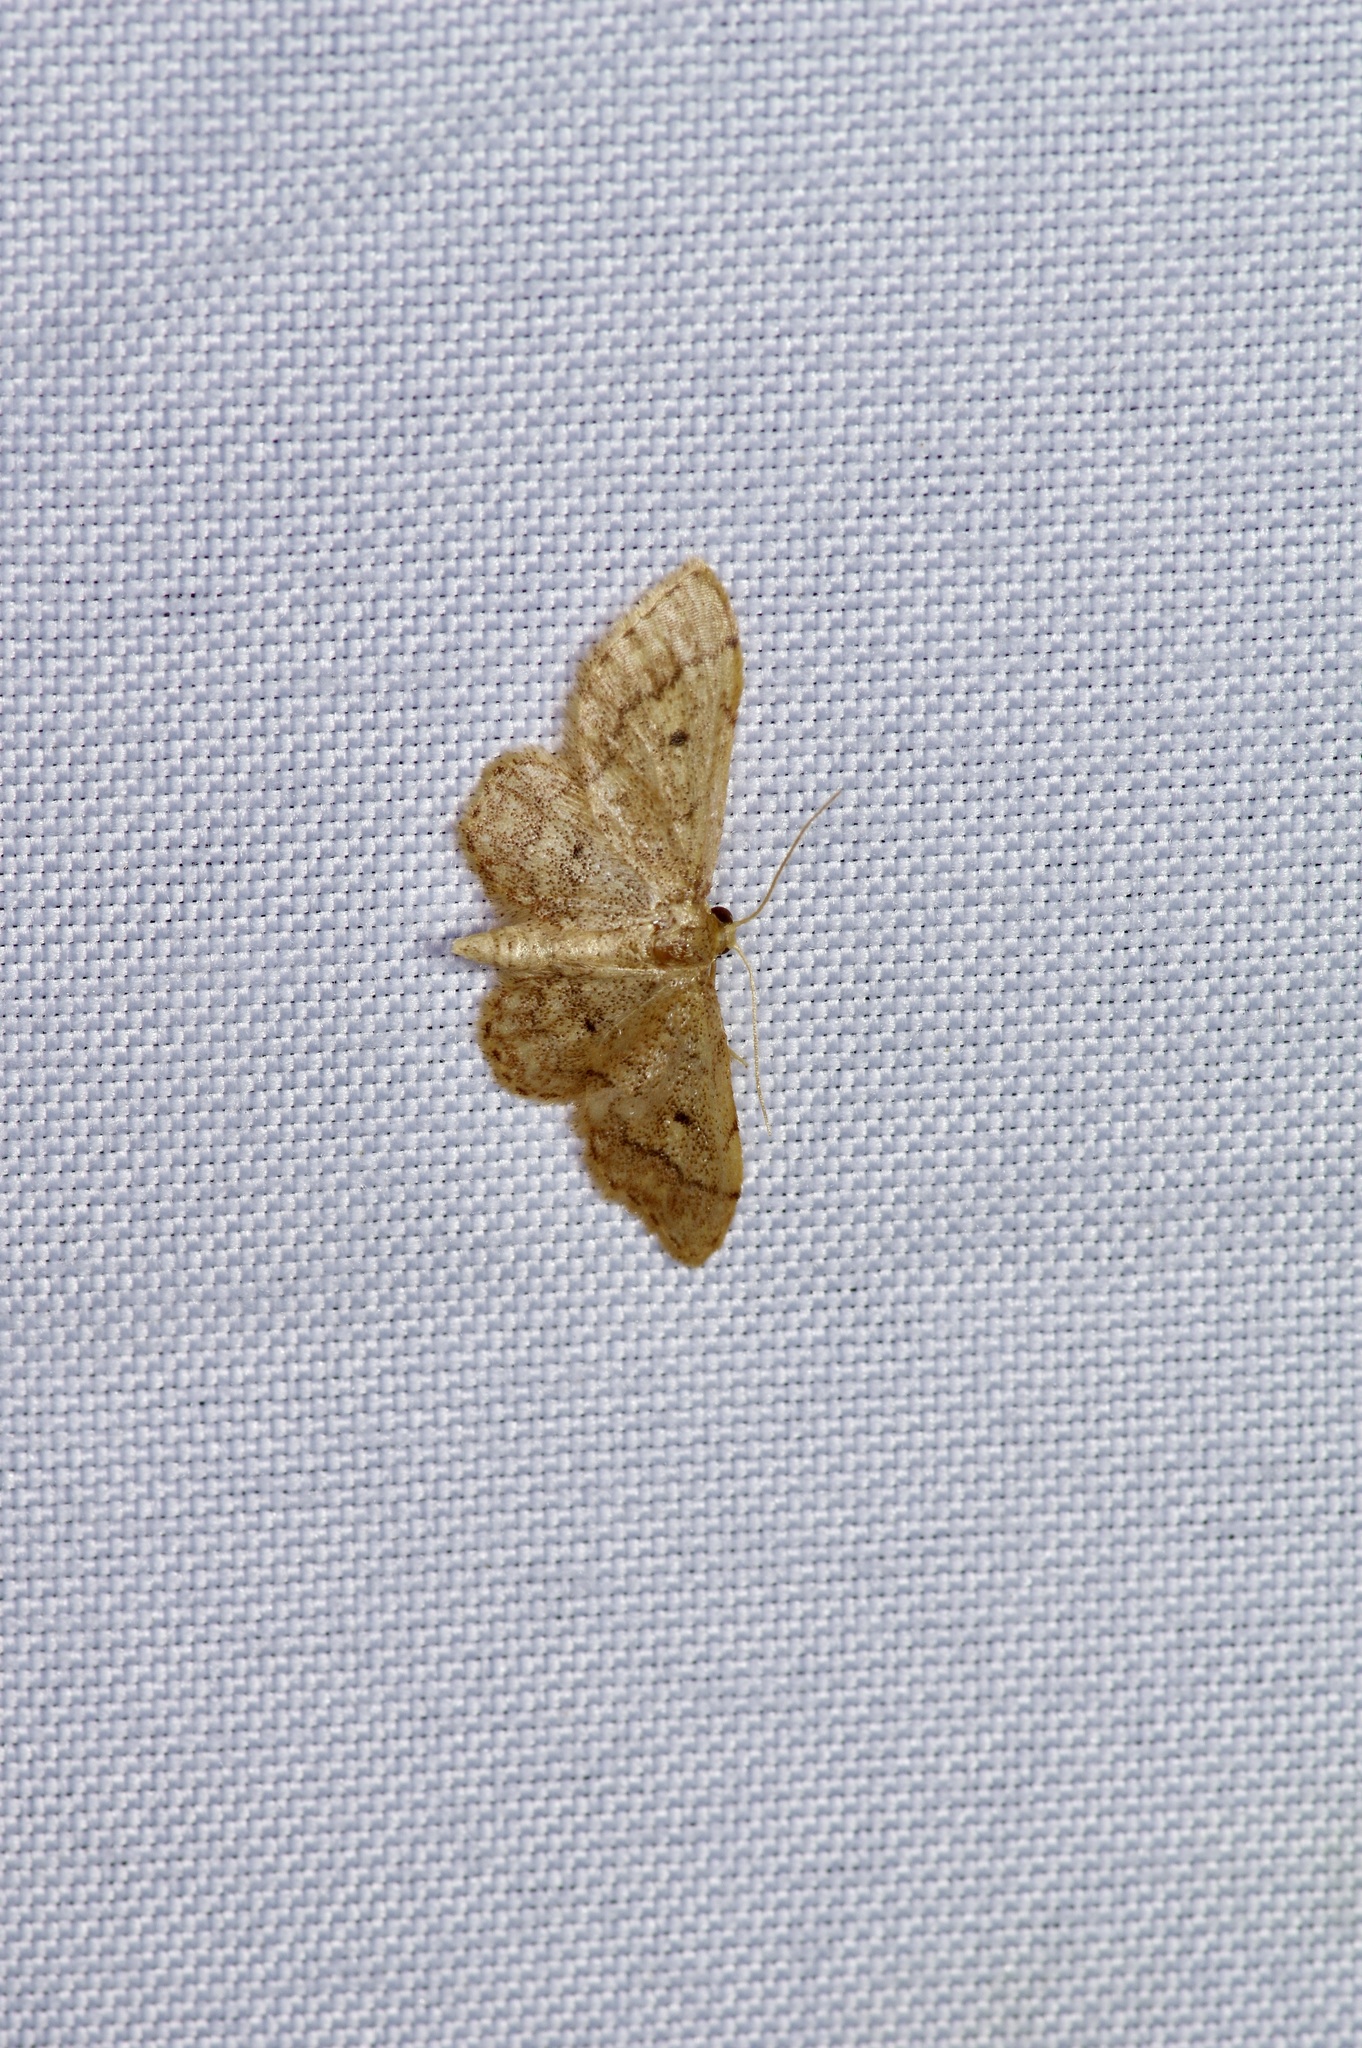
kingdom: Animalia
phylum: Arthropoda
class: Insecta
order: Lepidoptera
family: Geometridae
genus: Idaea
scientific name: Idaea celtima
